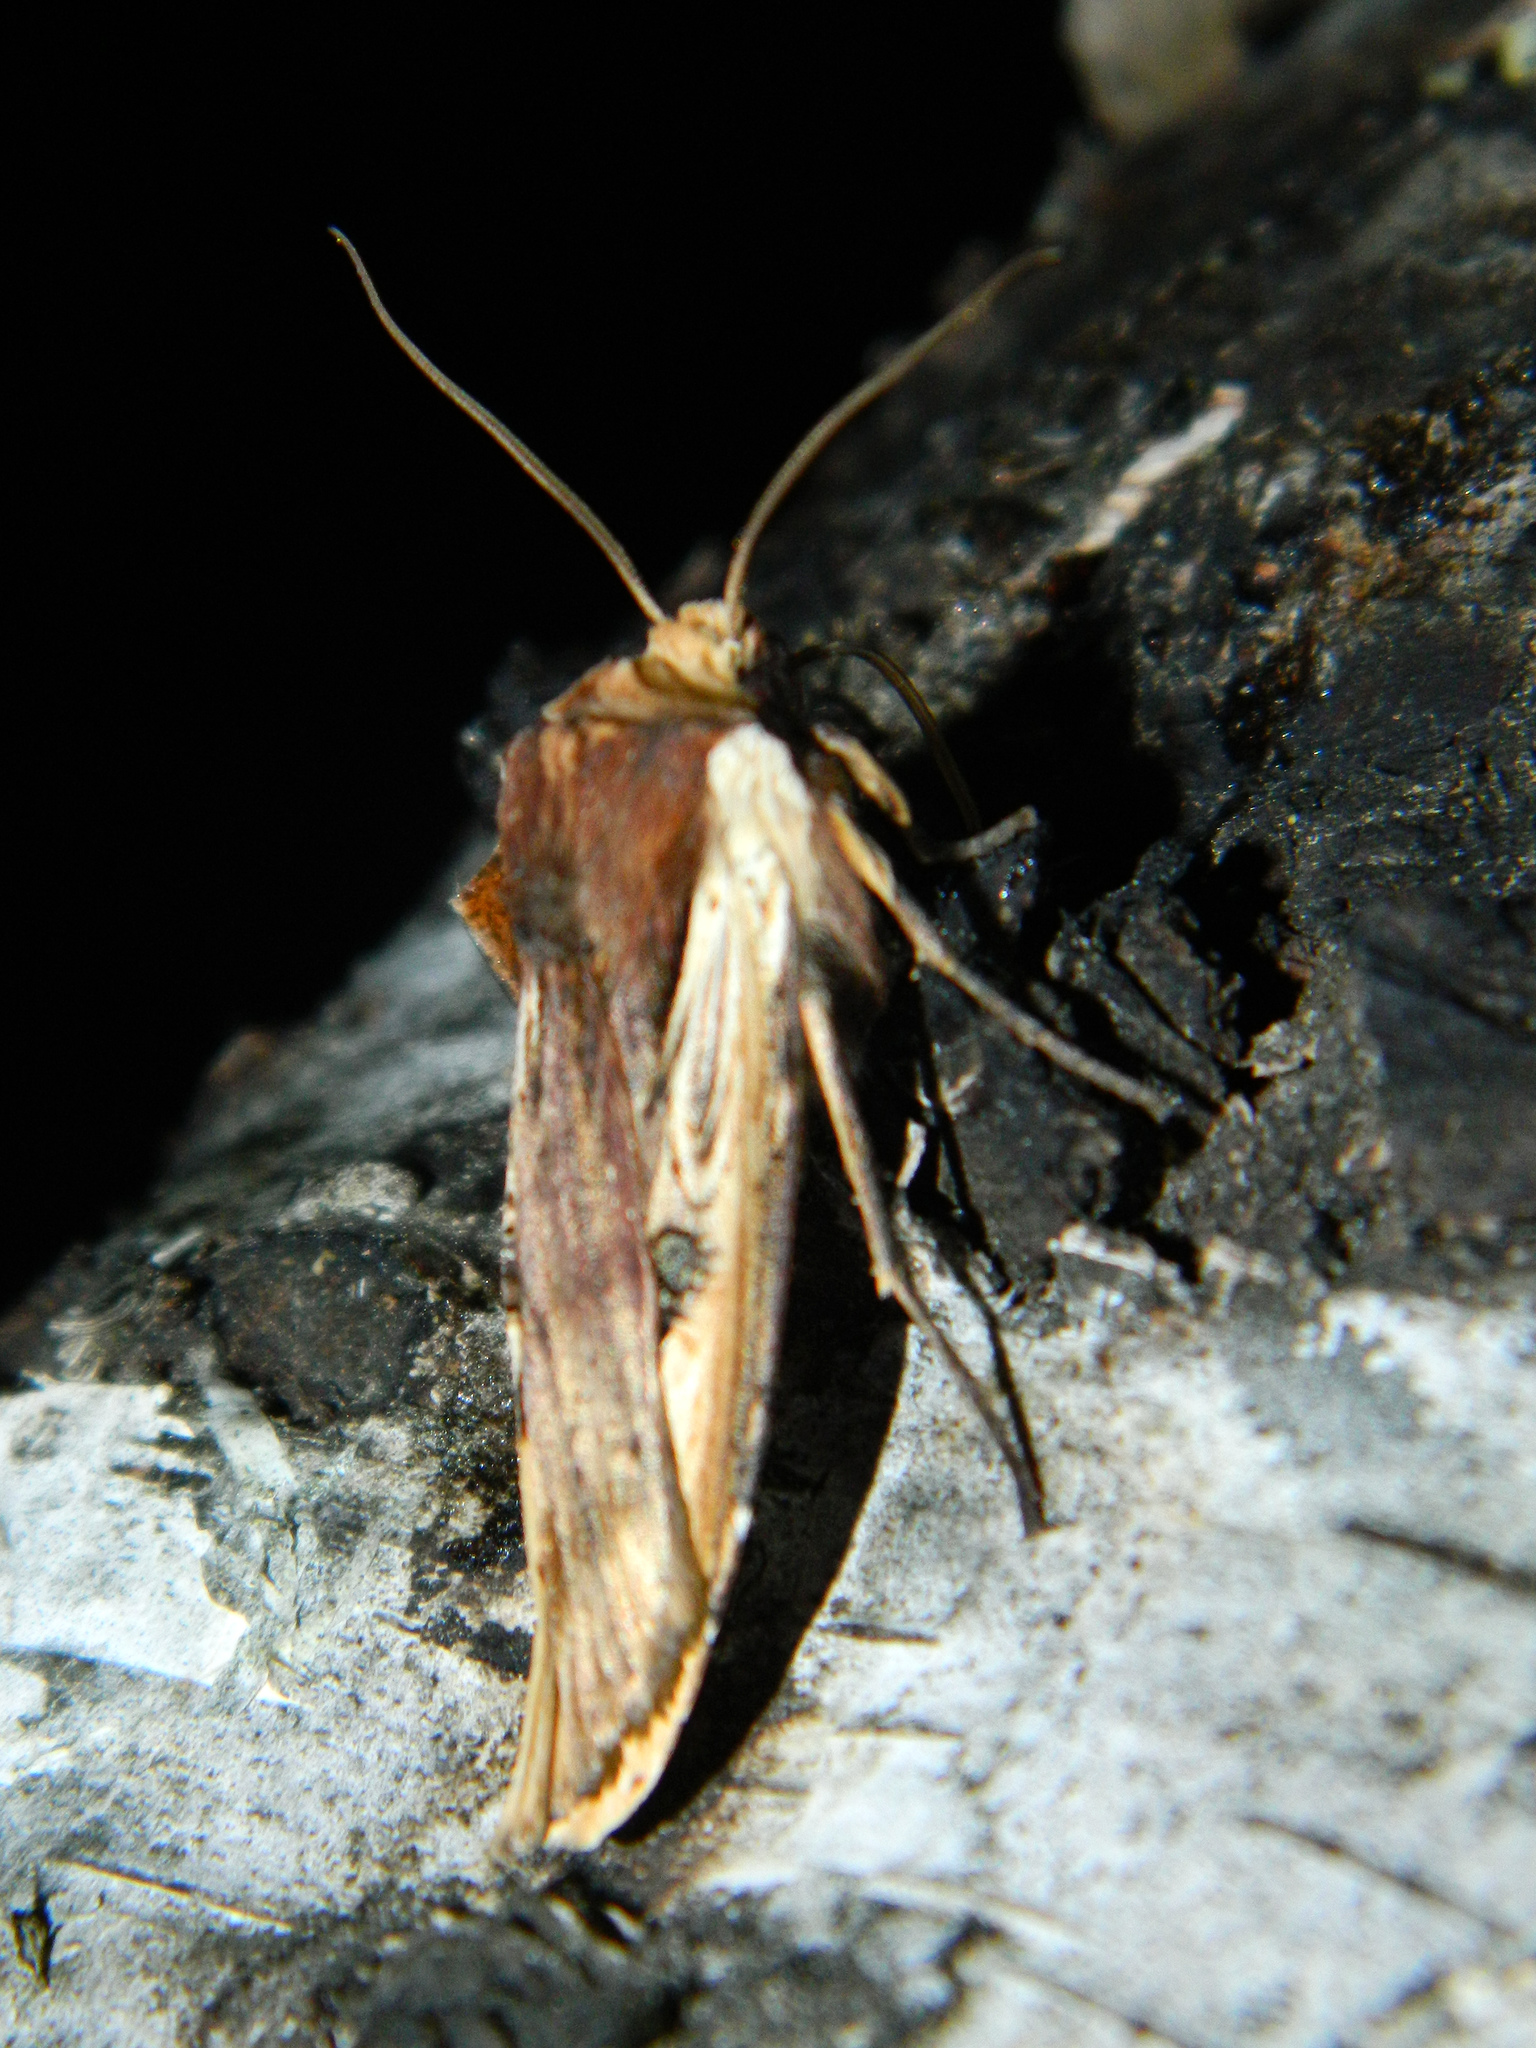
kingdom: Animalia
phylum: Arthropoda
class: Insecta
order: Lepidoptera
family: Noctuidae
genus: Xylena
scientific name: Xylena curvimacula
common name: Dot-and-dash swordgrass moth
